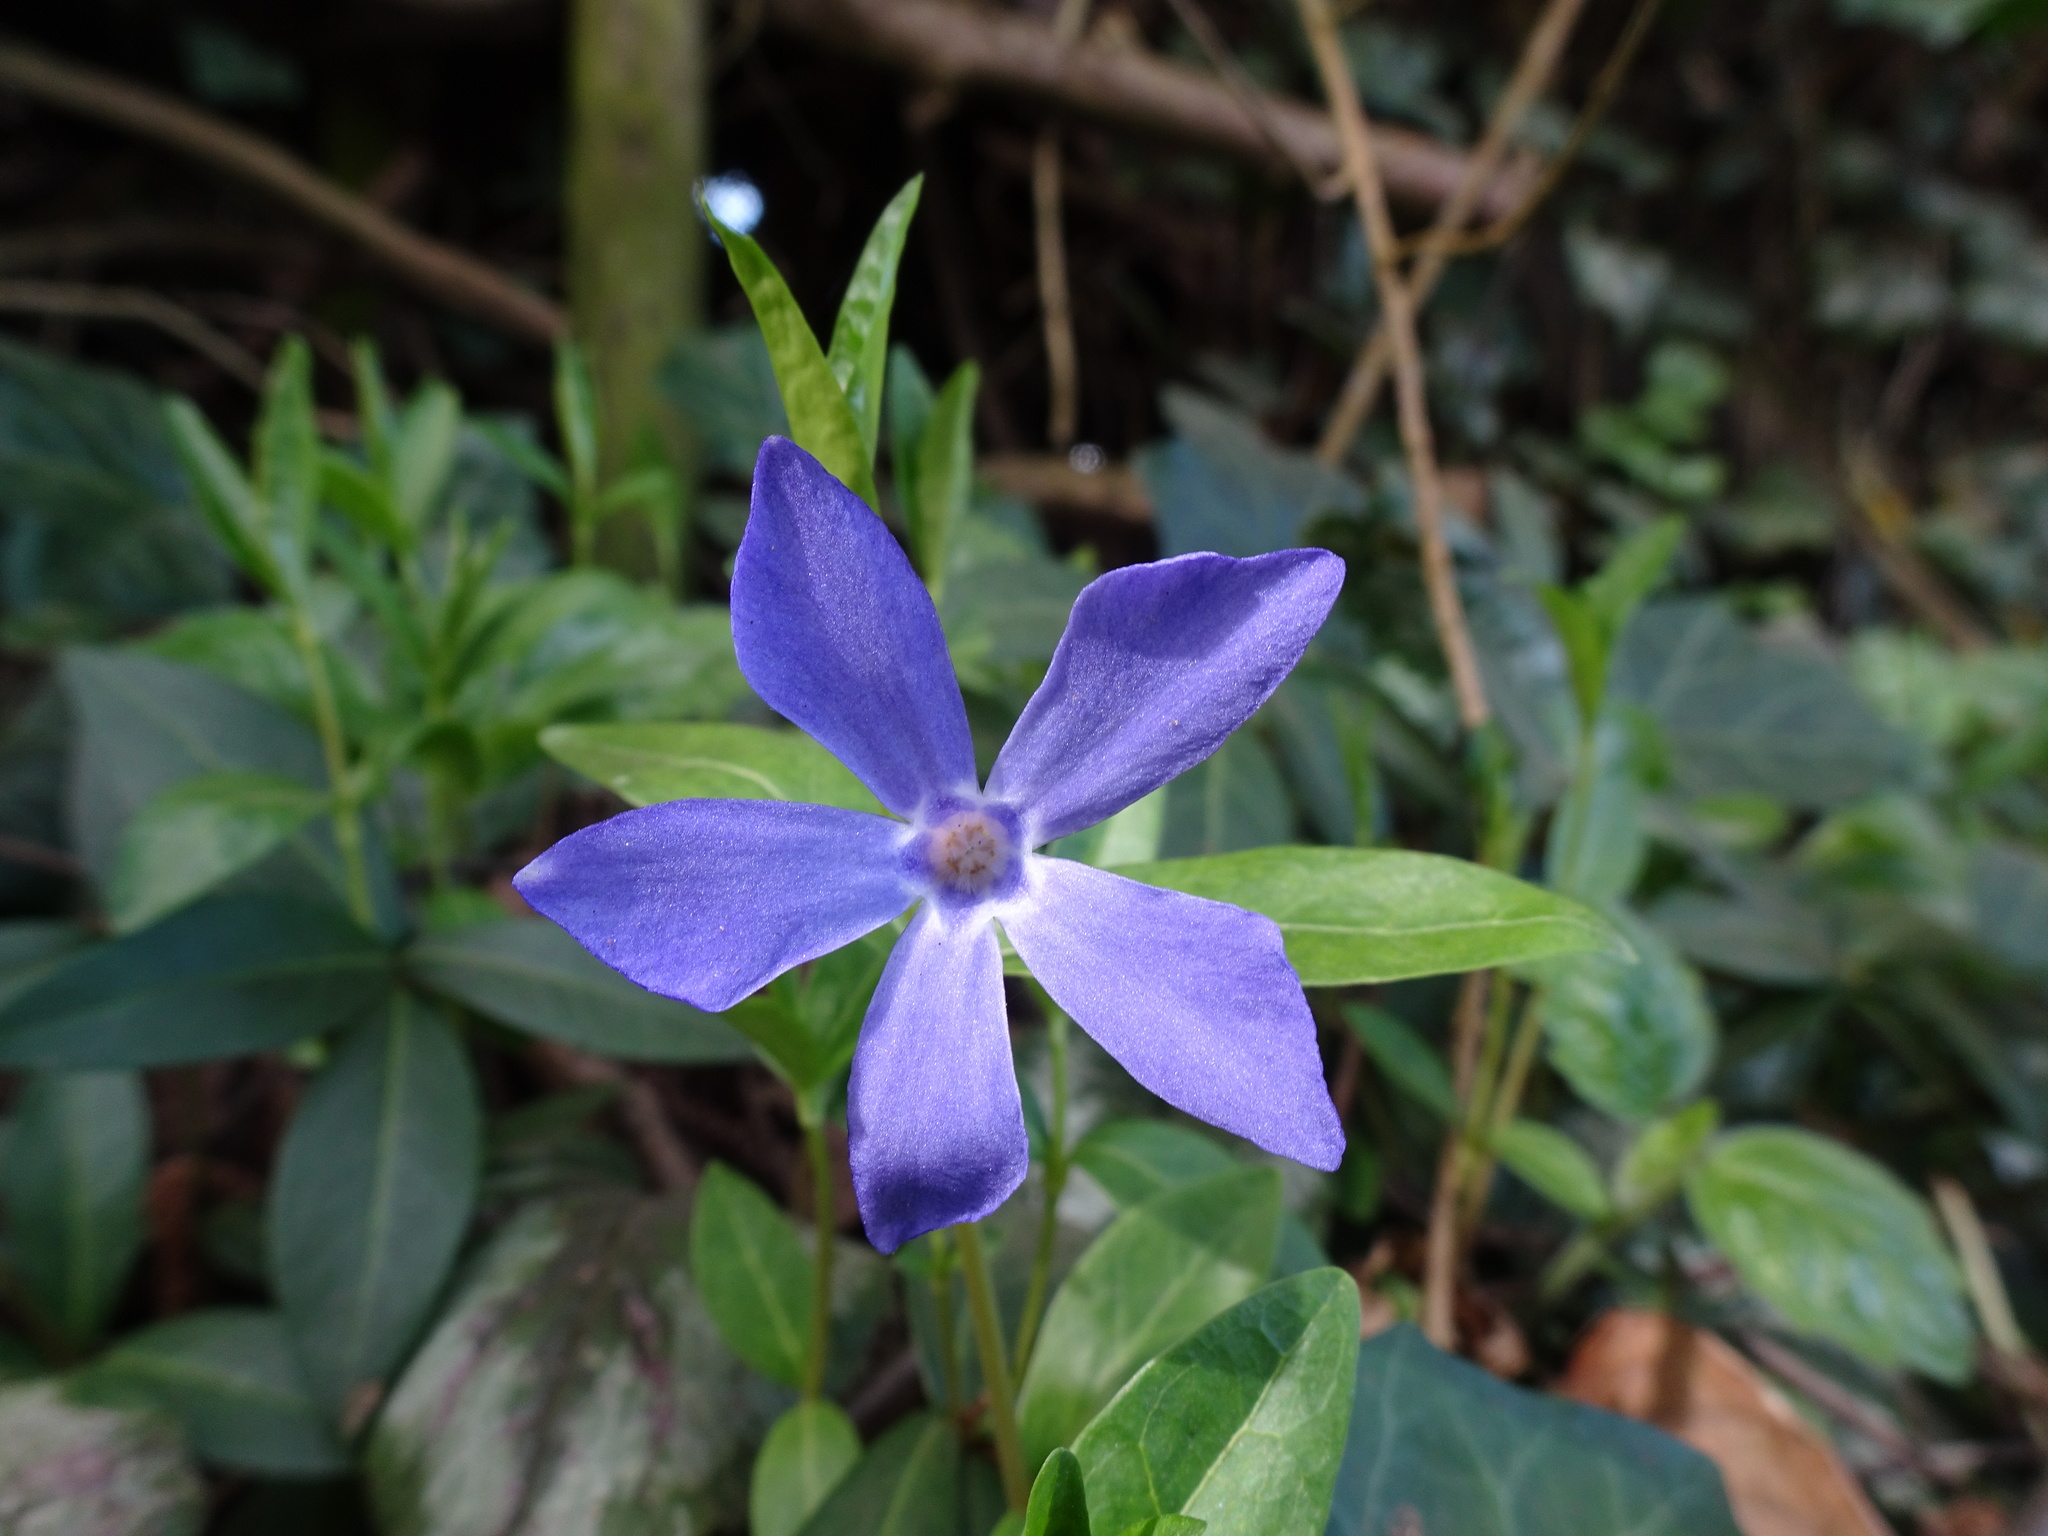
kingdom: Plantae
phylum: Tracheophyta
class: Magnoliopsida
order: Gentianales
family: Apocynaceae
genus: Vinca
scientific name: Vinca minor
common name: Lesser periwinkle
